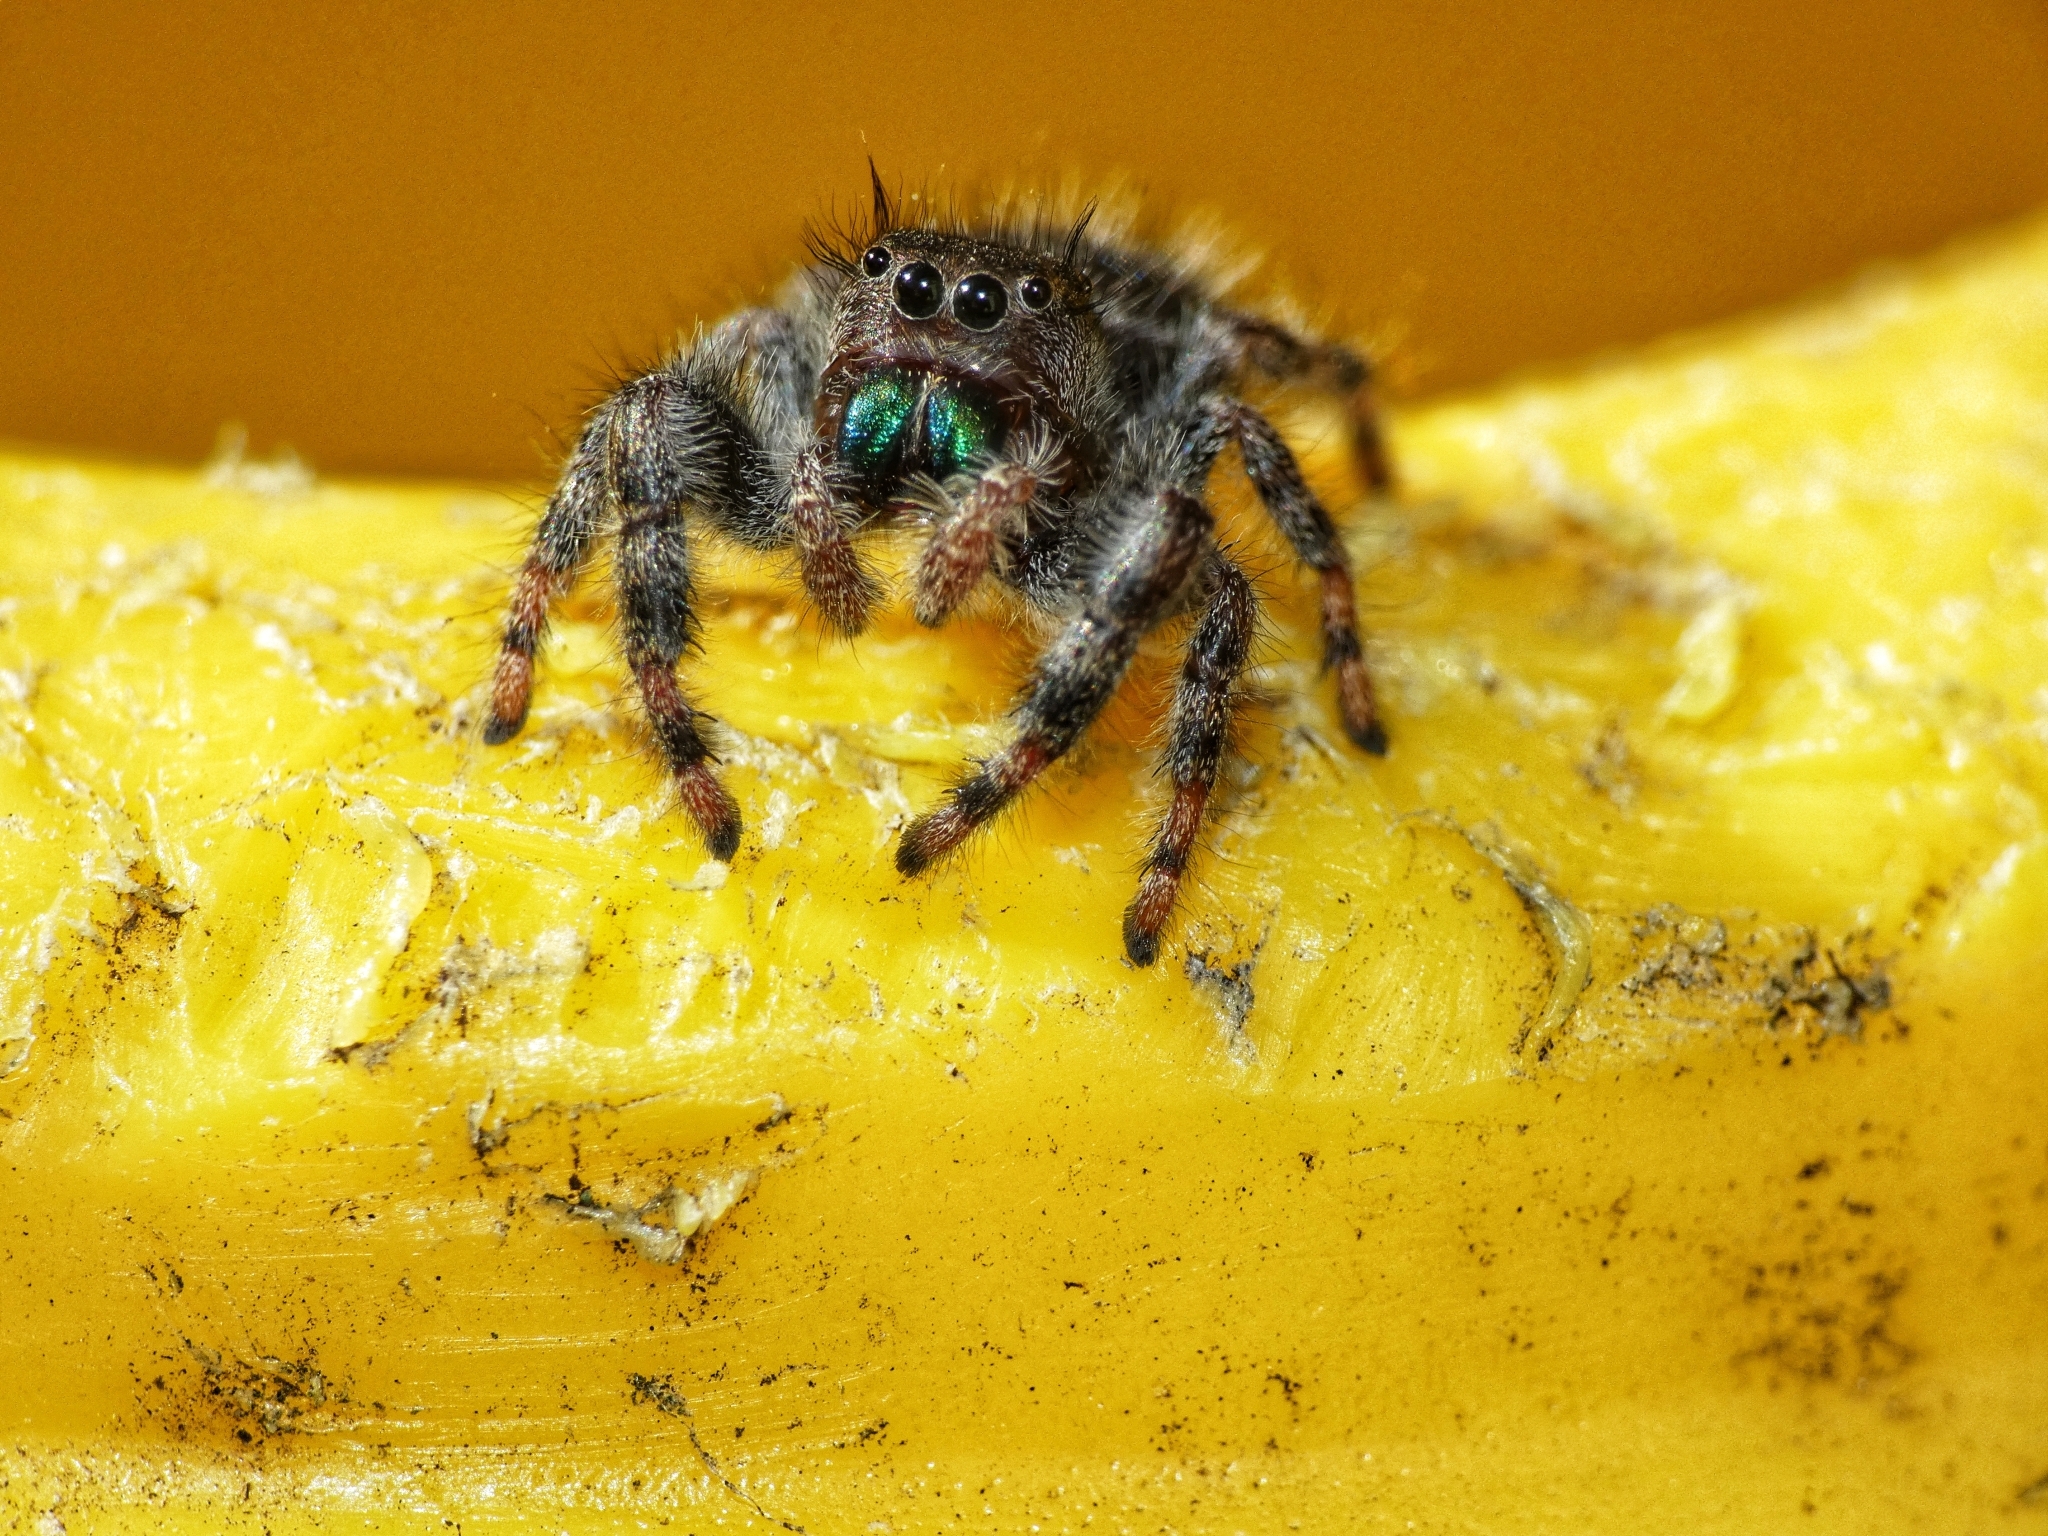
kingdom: Animalia
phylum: Arthropoda
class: Arachnida
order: Araneae
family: Salticidae
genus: Phidippus
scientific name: Phidippus audax
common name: Bold jumper
